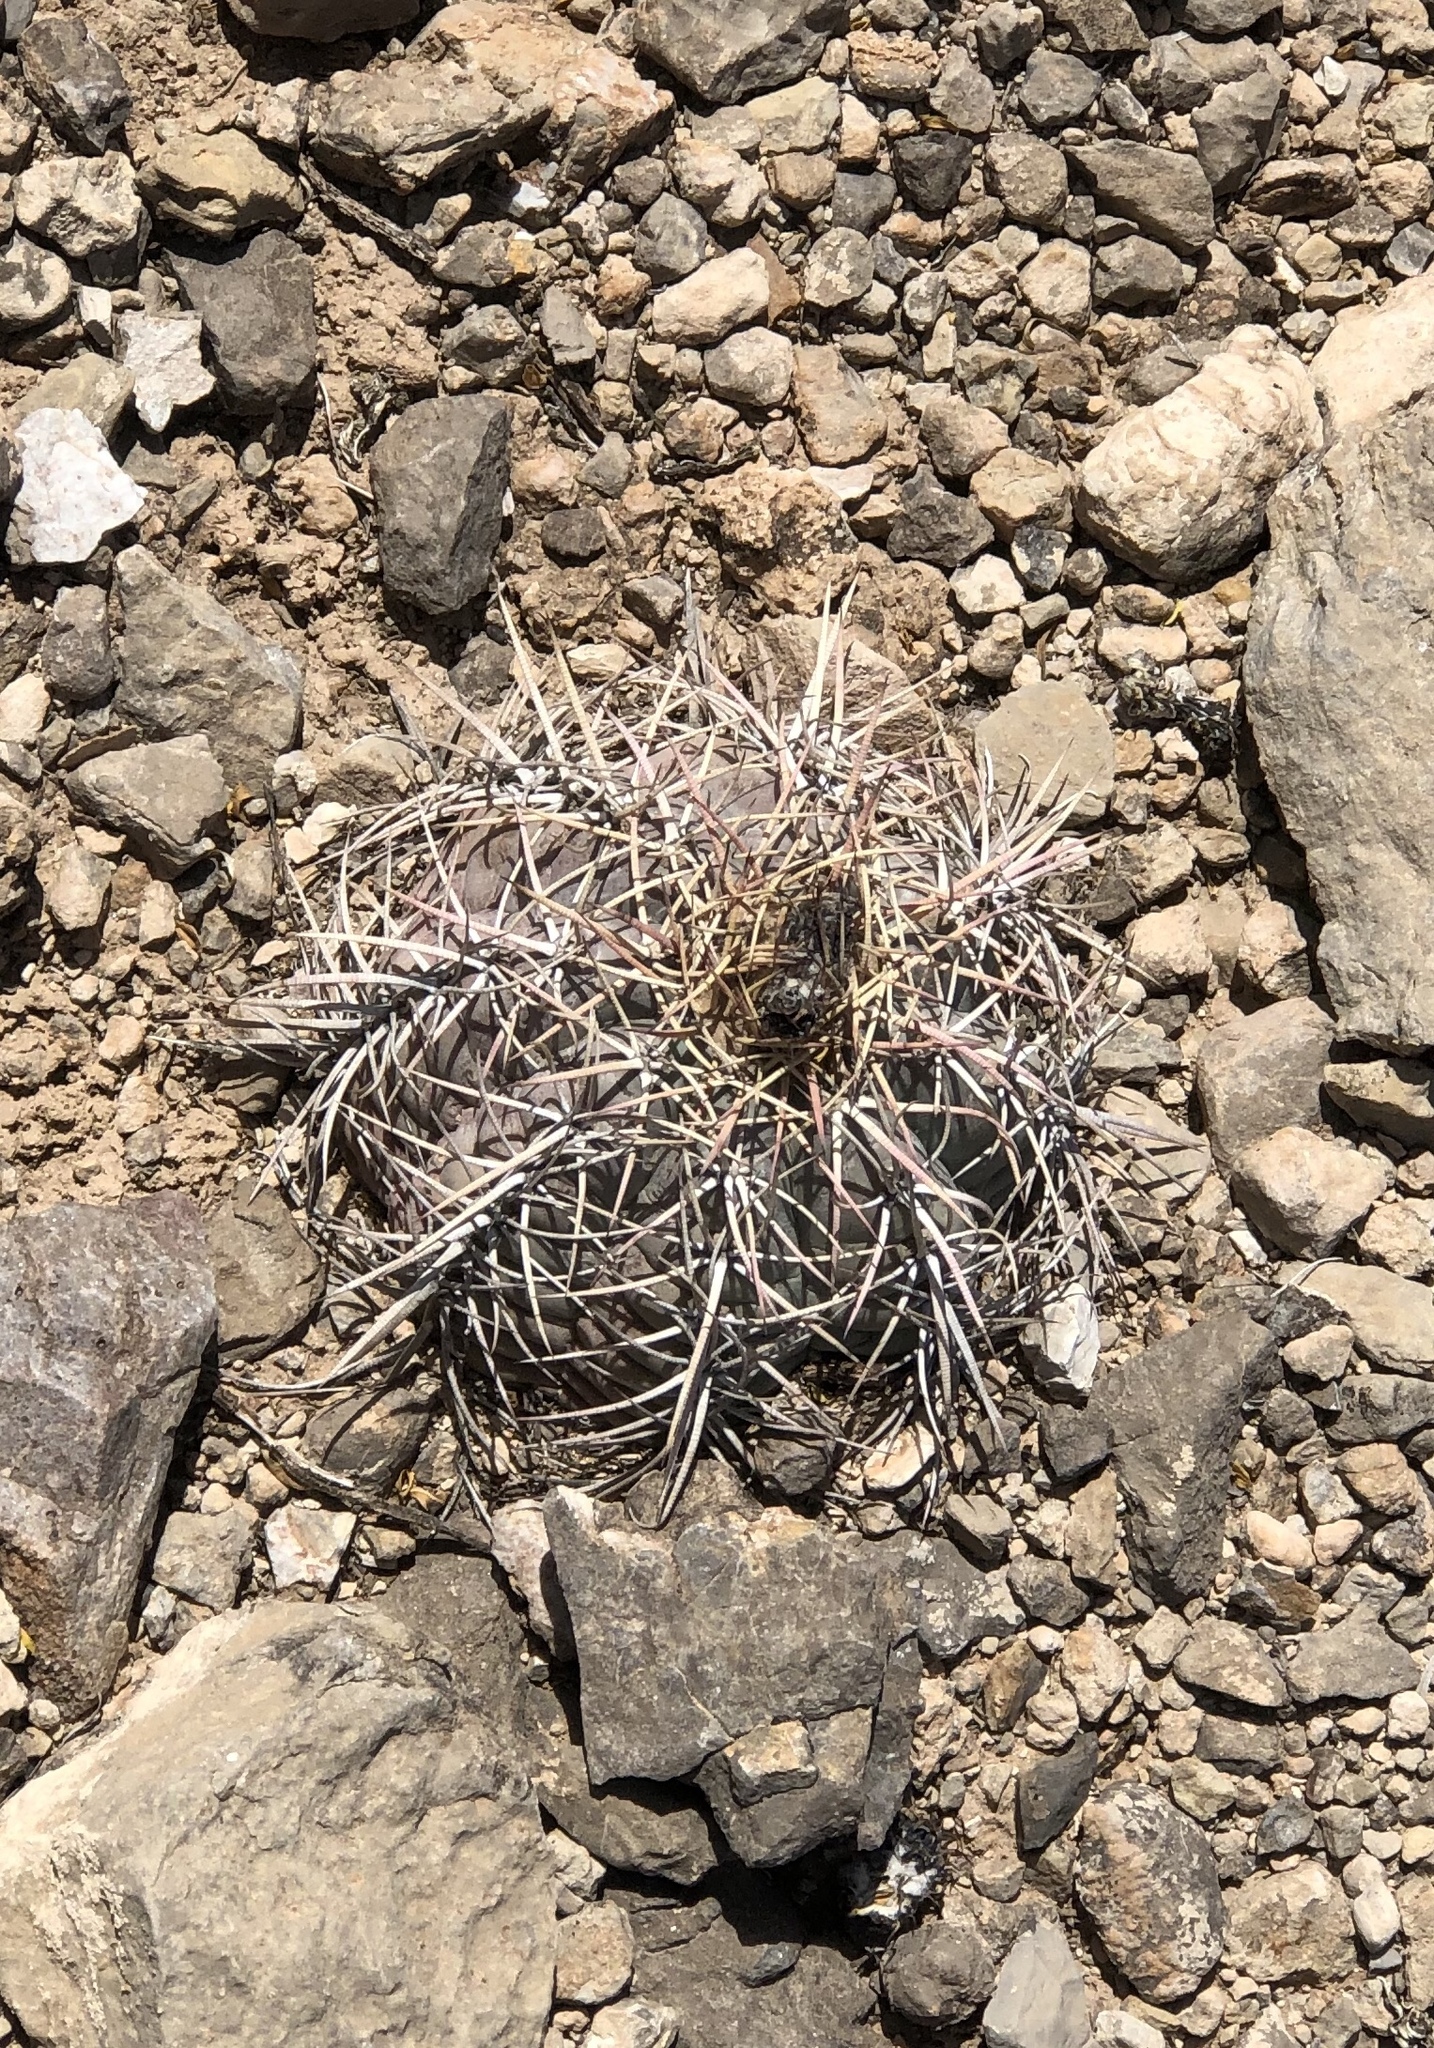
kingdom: Plantae
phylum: Tracheophyta
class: Magnoliopsida
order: Caryophyllales
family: Cactaceae
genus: Echinocactus
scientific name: Echinocactus horizonthalonius
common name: Devilshead
